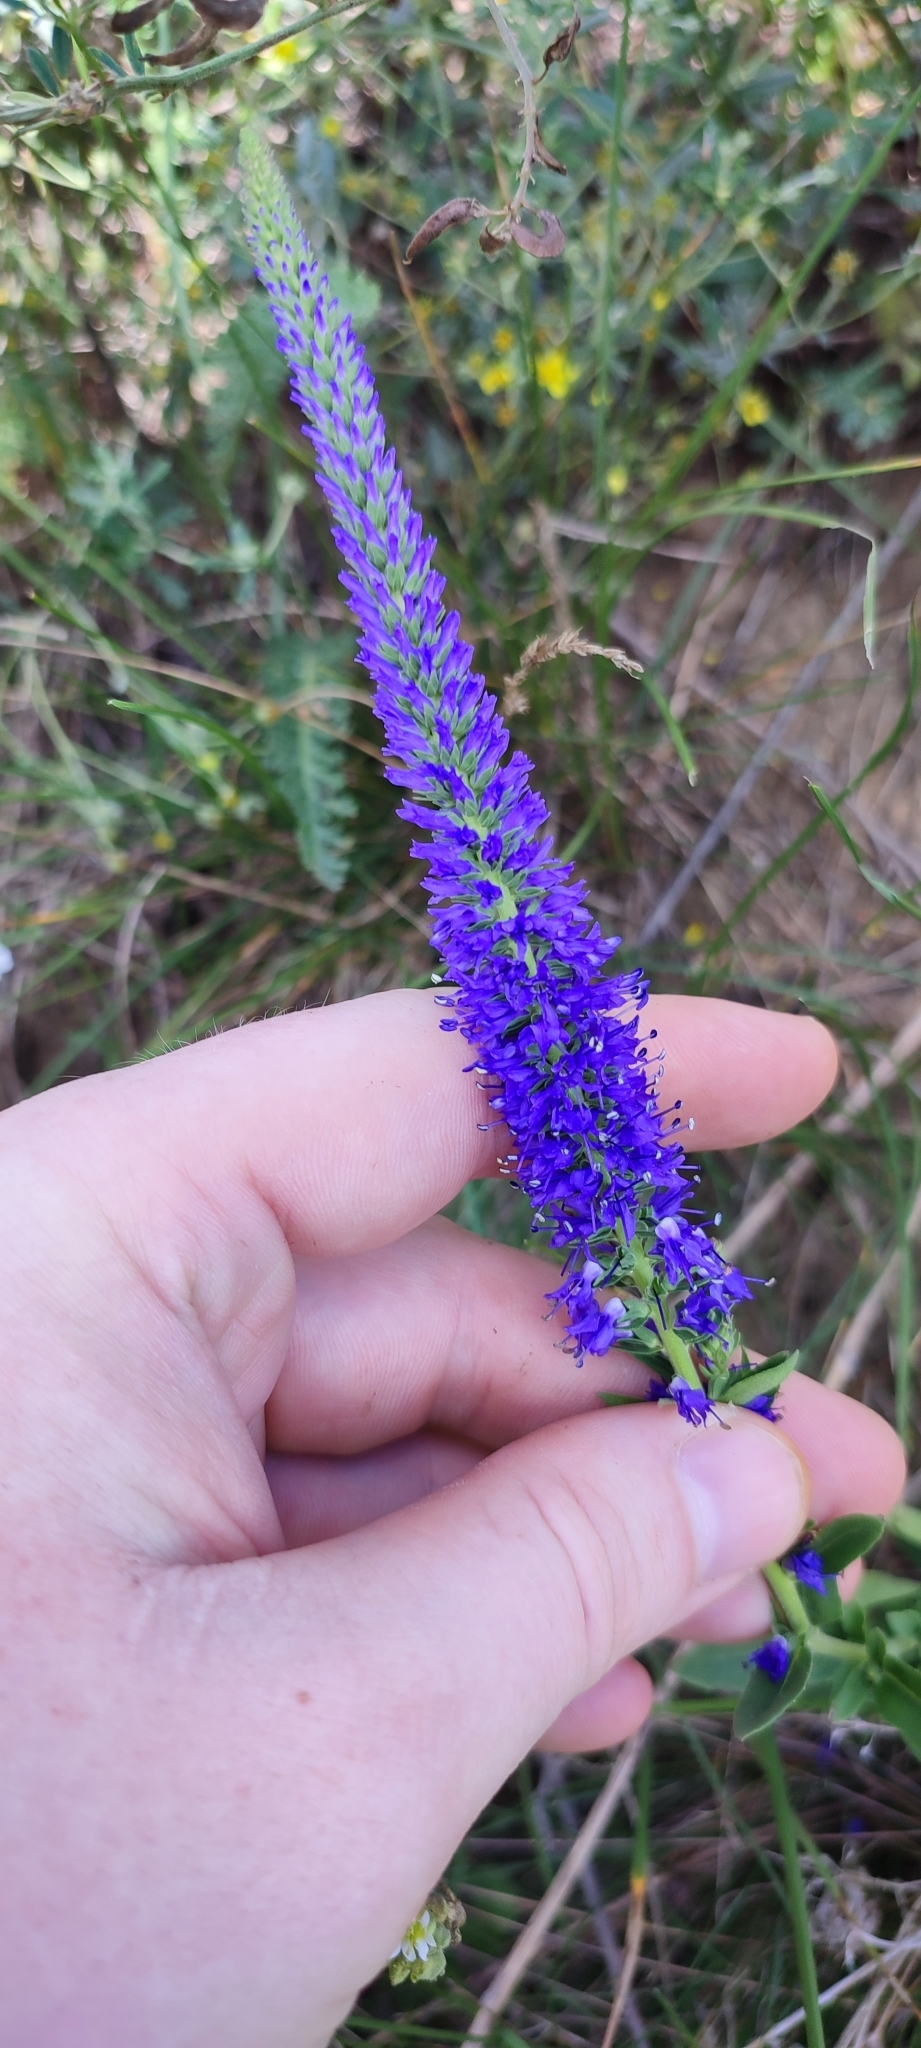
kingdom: Plantae
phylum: Tracheophyta
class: Magnoliopsida
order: Lamiales
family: Plantaginaceae
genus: Veronica
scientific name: Veronica spicata
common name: Spiked speedwell
